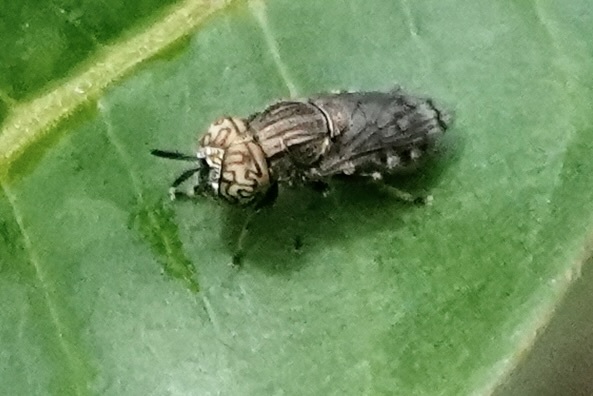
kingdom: Animalia
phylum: Arthropoda
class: Insecta
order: Diptera
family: Syrphidae
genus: Orthonevra
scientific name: Orthonevra nitida
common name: Wavy mucksucker
